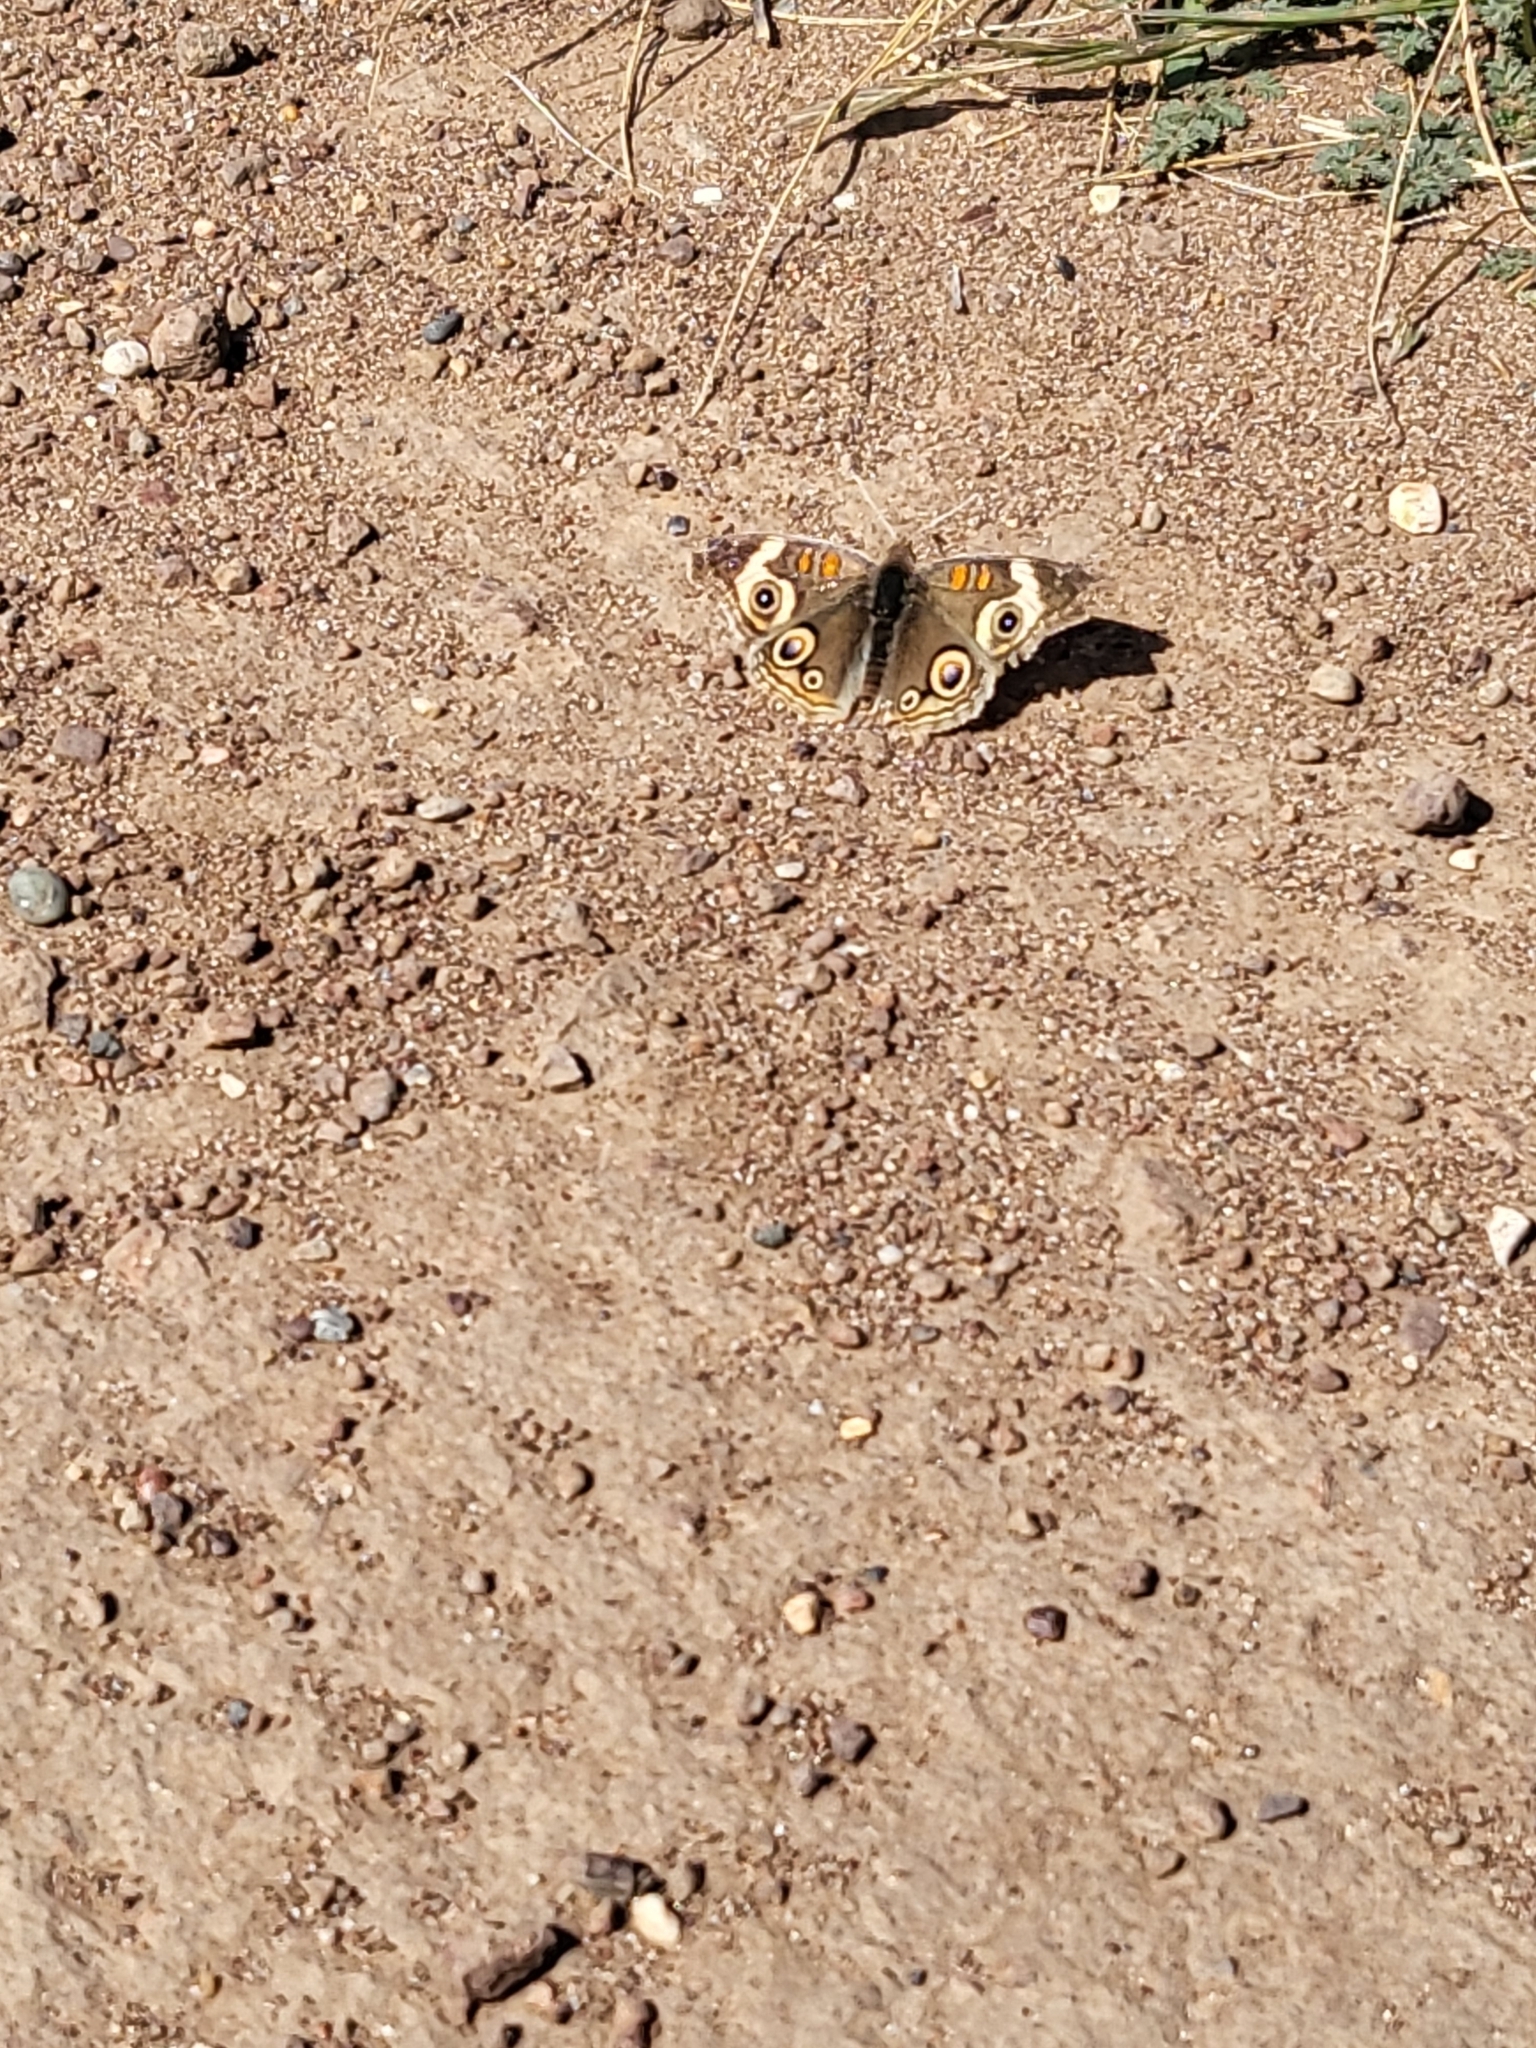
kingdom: Animalia
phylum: Arthropoda
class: Insecta
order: Lepidoptera
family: Nymphalidae
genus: Junonia
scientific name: Junonia grisea
